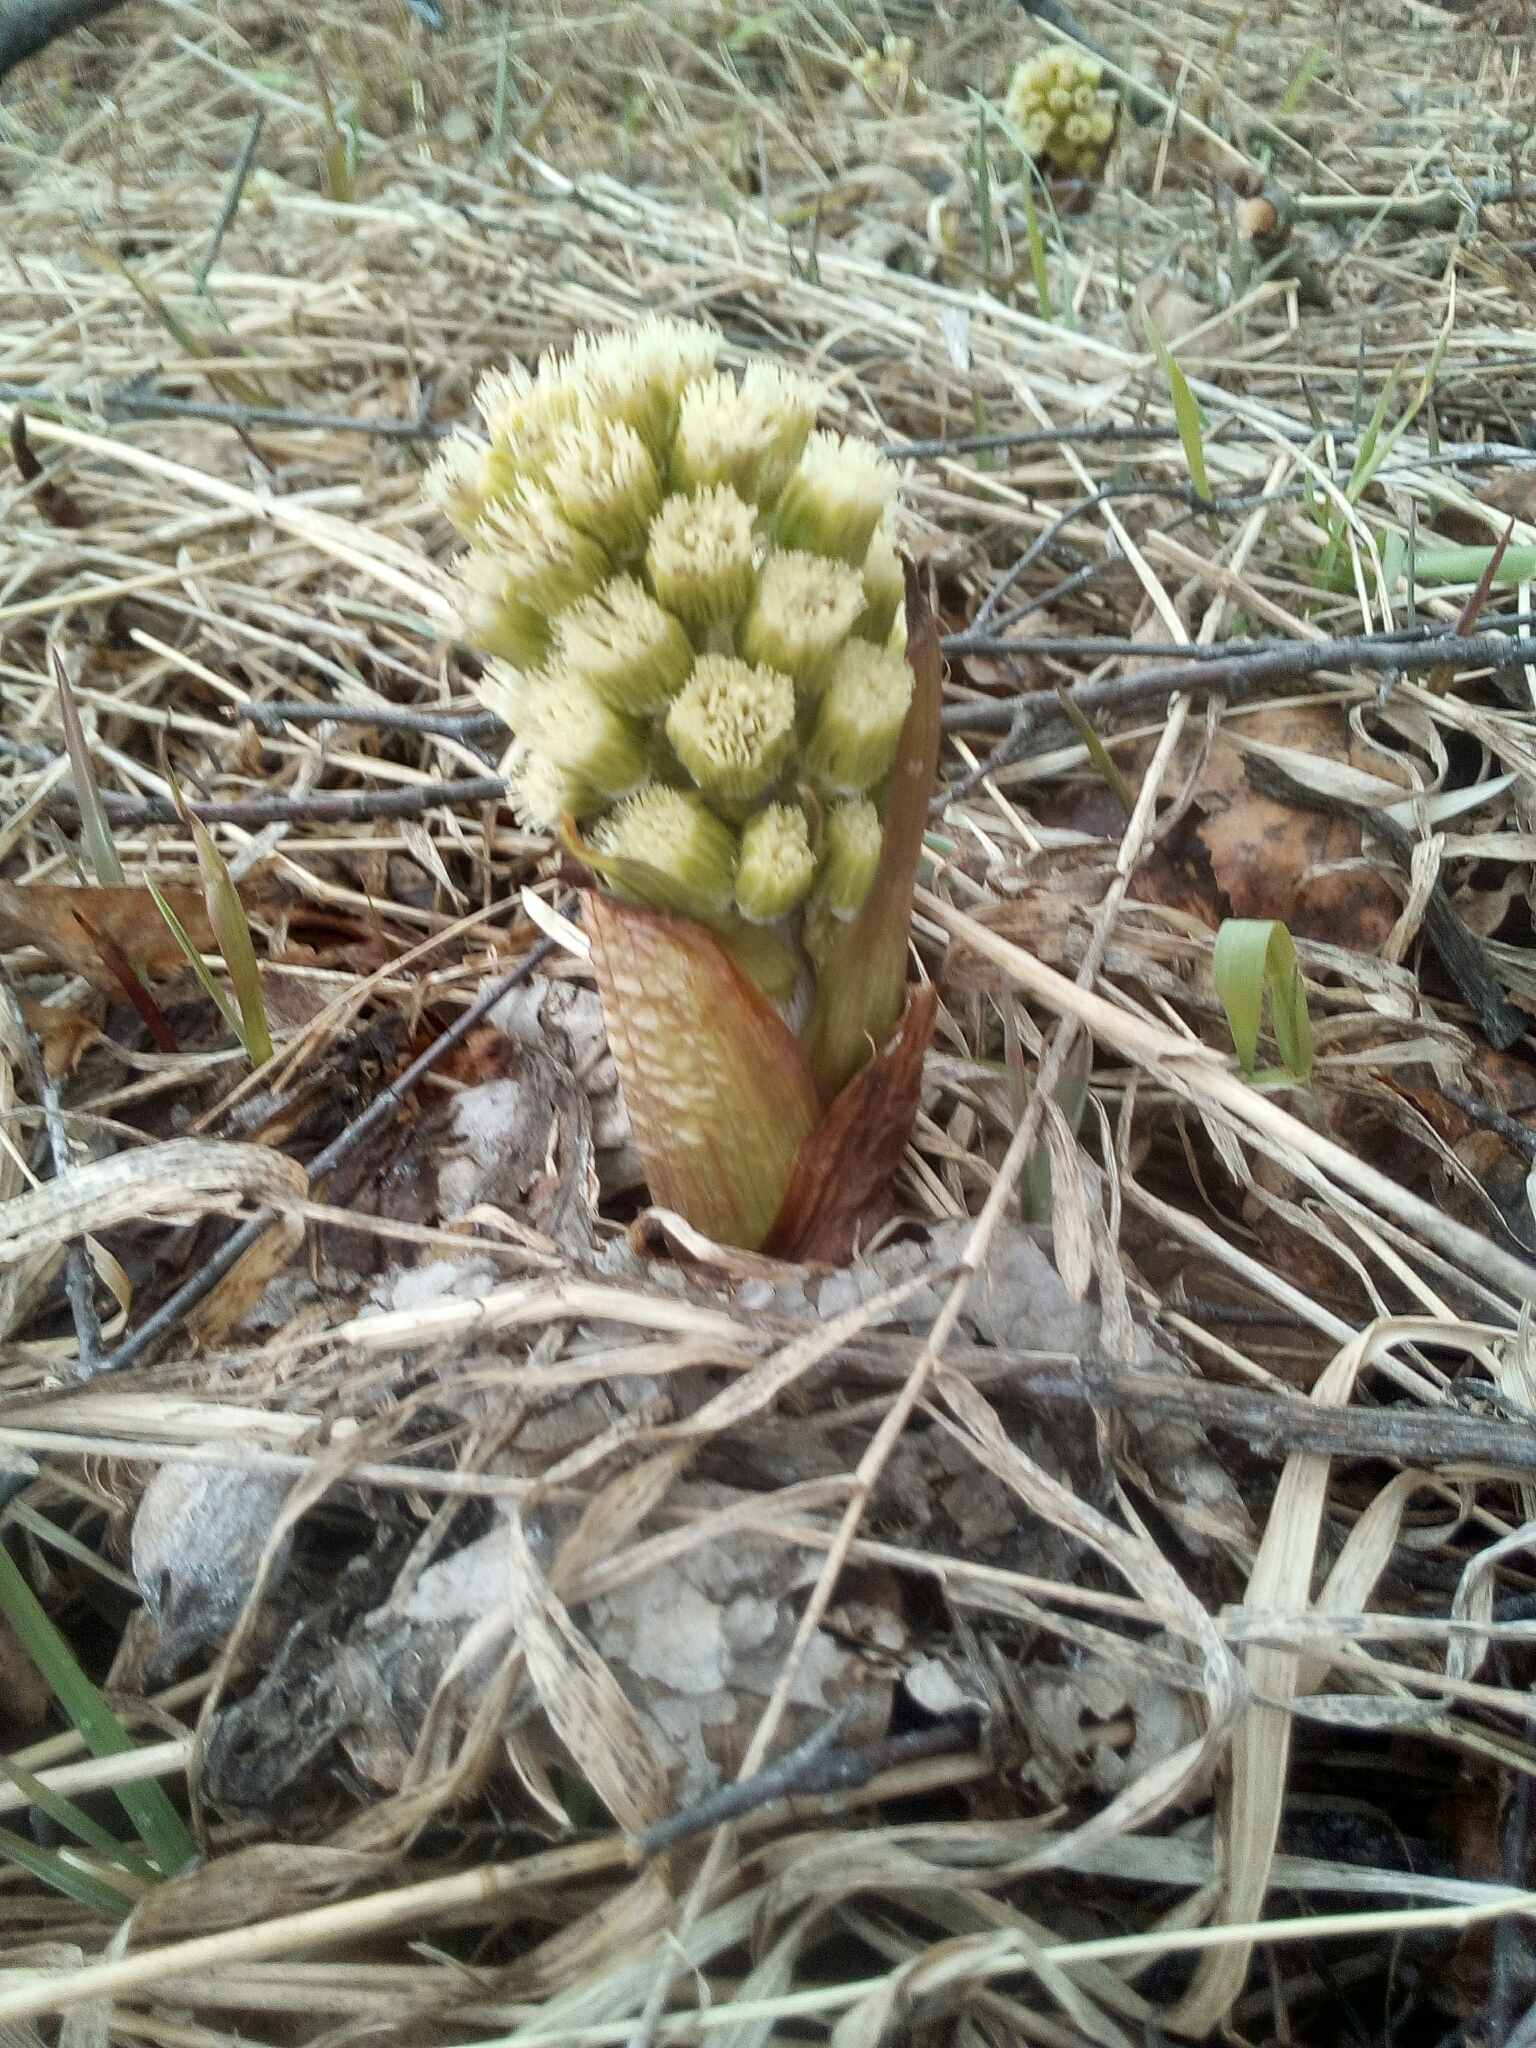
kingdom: Plantae
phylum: Tracheophyta
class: Magnoliopsida
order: Asterales
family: Asteraceae
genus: Petasites
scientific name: Petasites spurius
